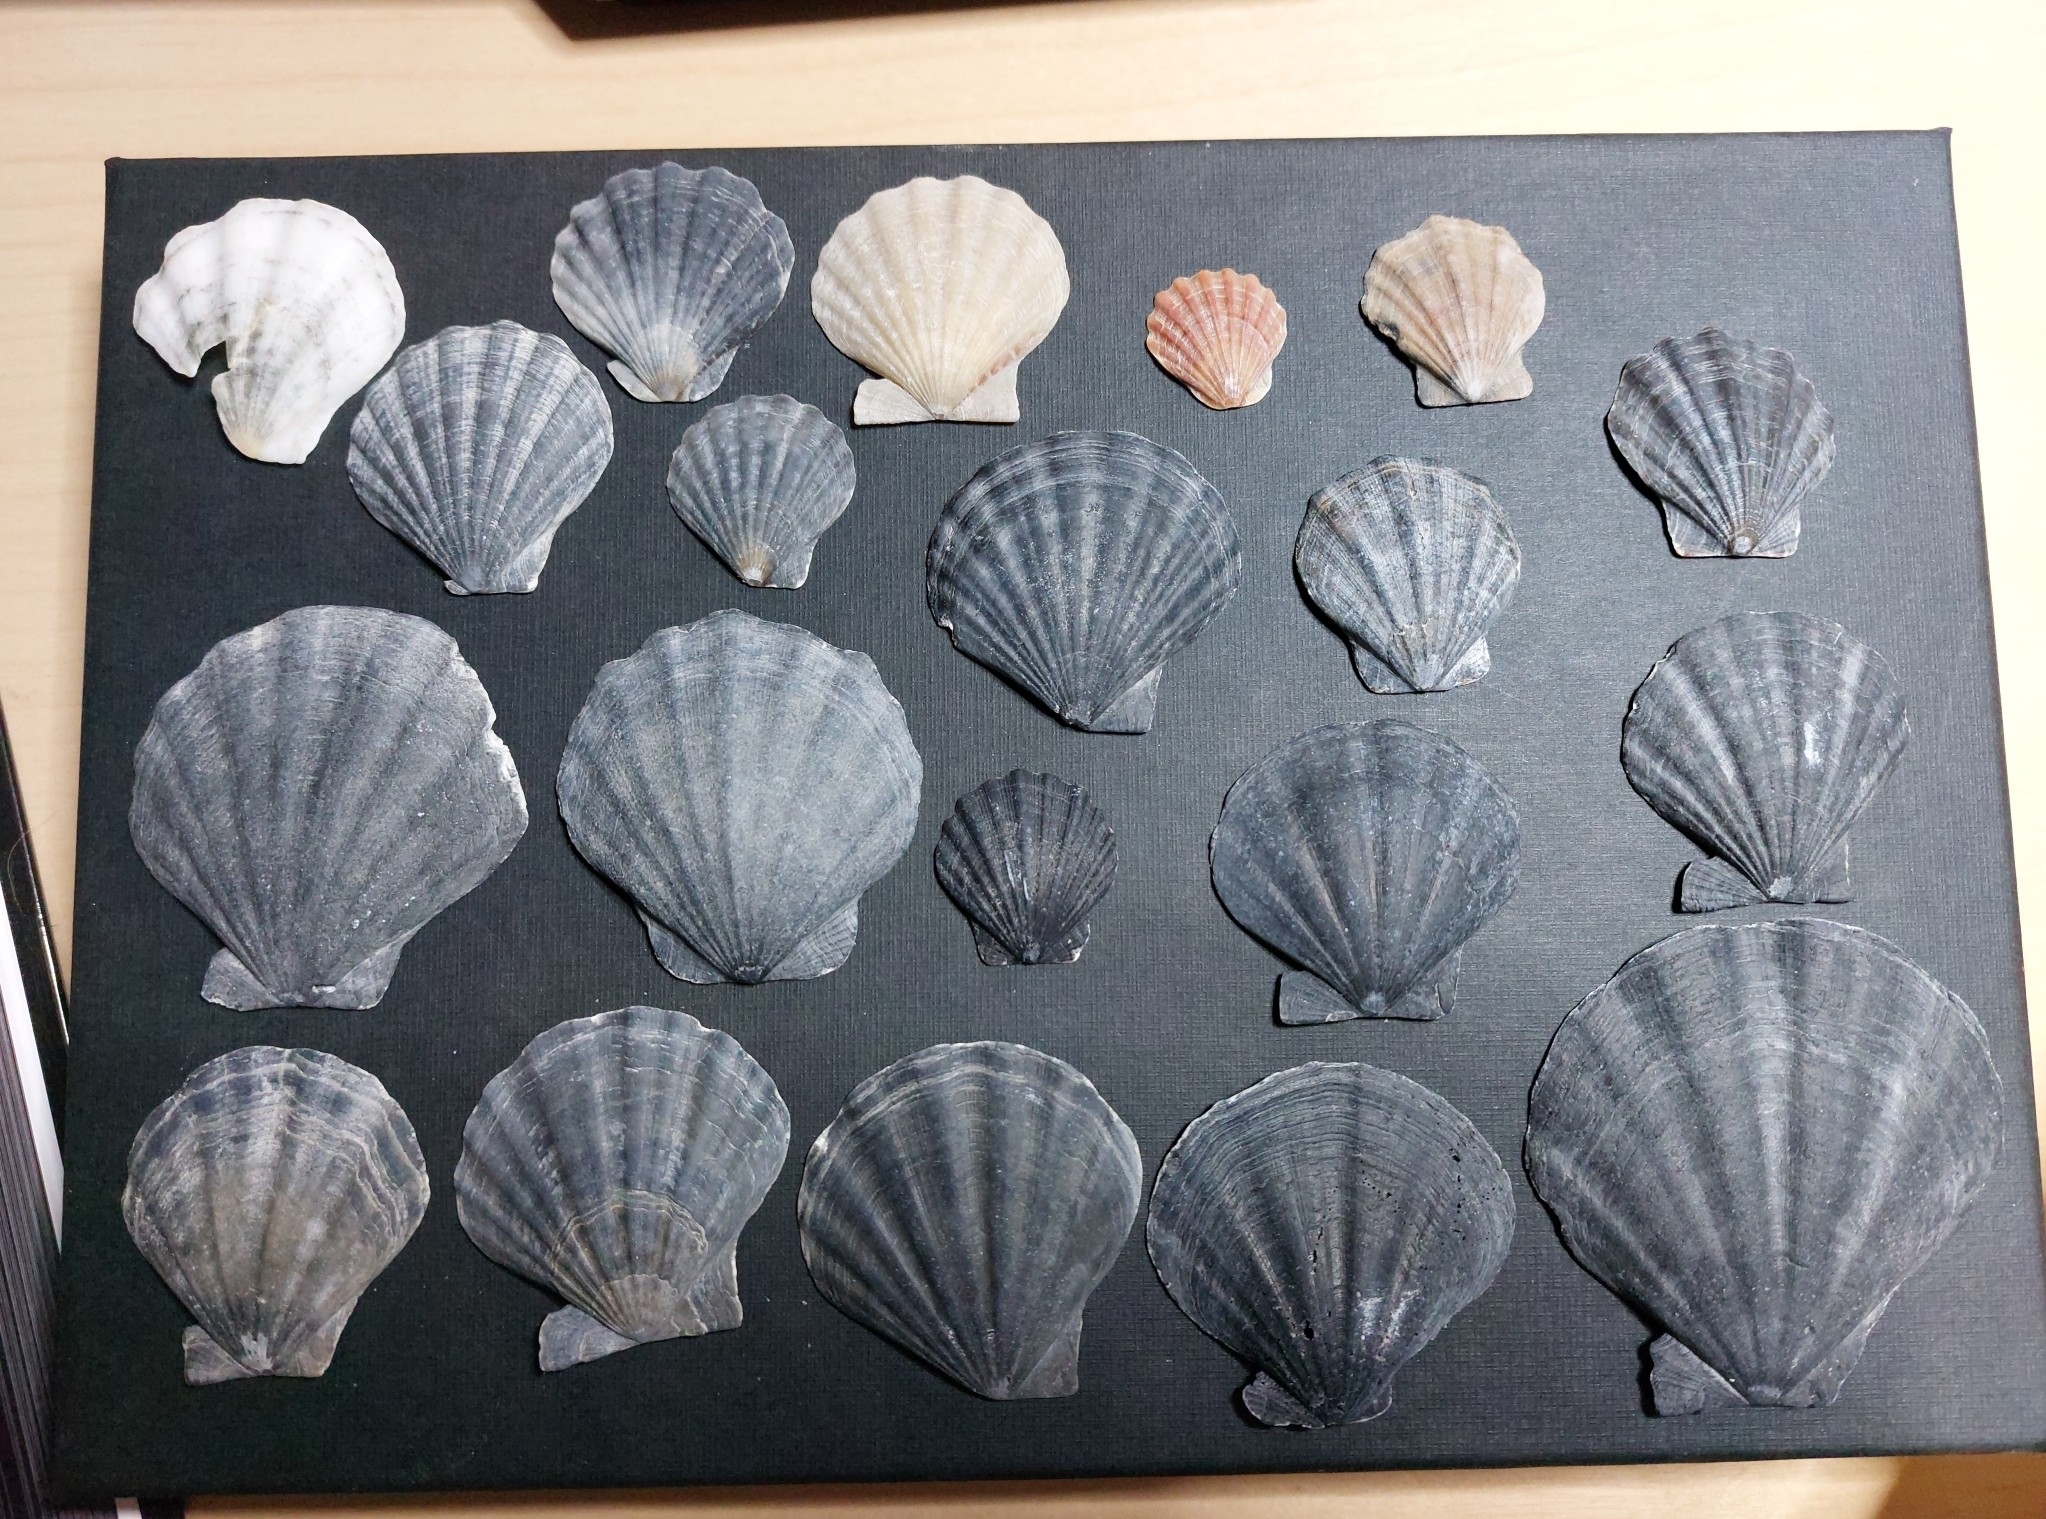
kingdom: Animalia
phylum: Mollusca
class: Bivalvia
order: Pectinida
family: Pectinidae
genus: Flexopecten
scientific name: Flexopecten glaber
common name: Smooth scallop
